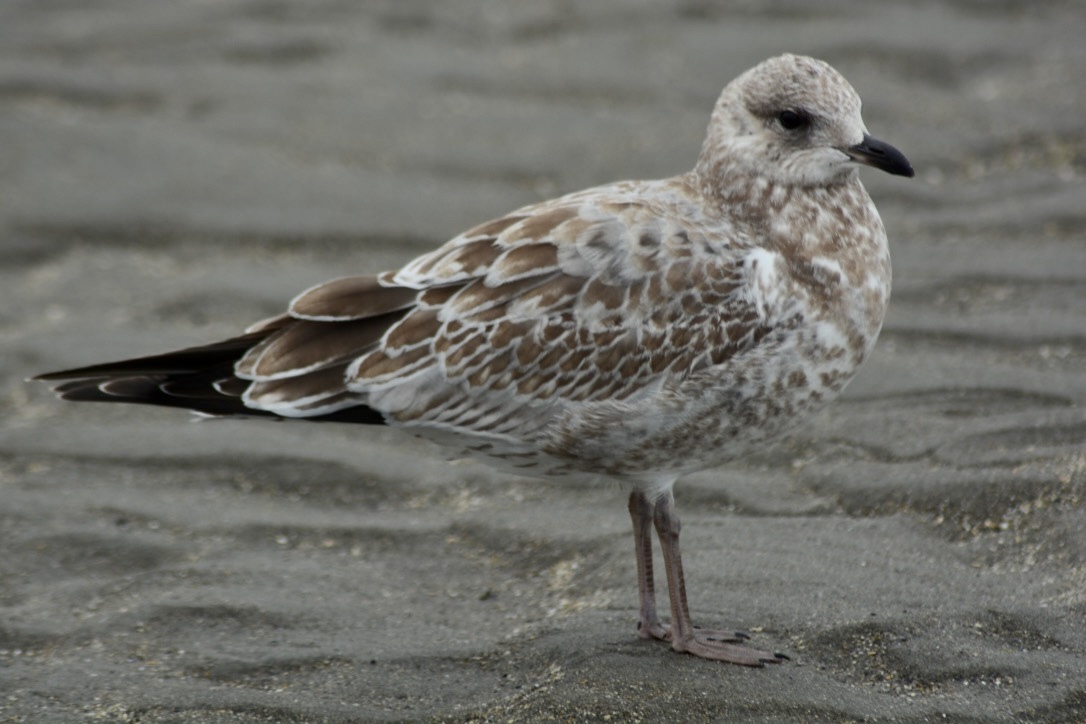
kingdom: Animalia
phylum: Chordata
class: Aves
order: Charadriiformes
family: Laridae
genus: Larus
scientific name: Larus delawarensis
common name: Ring-billed gull
